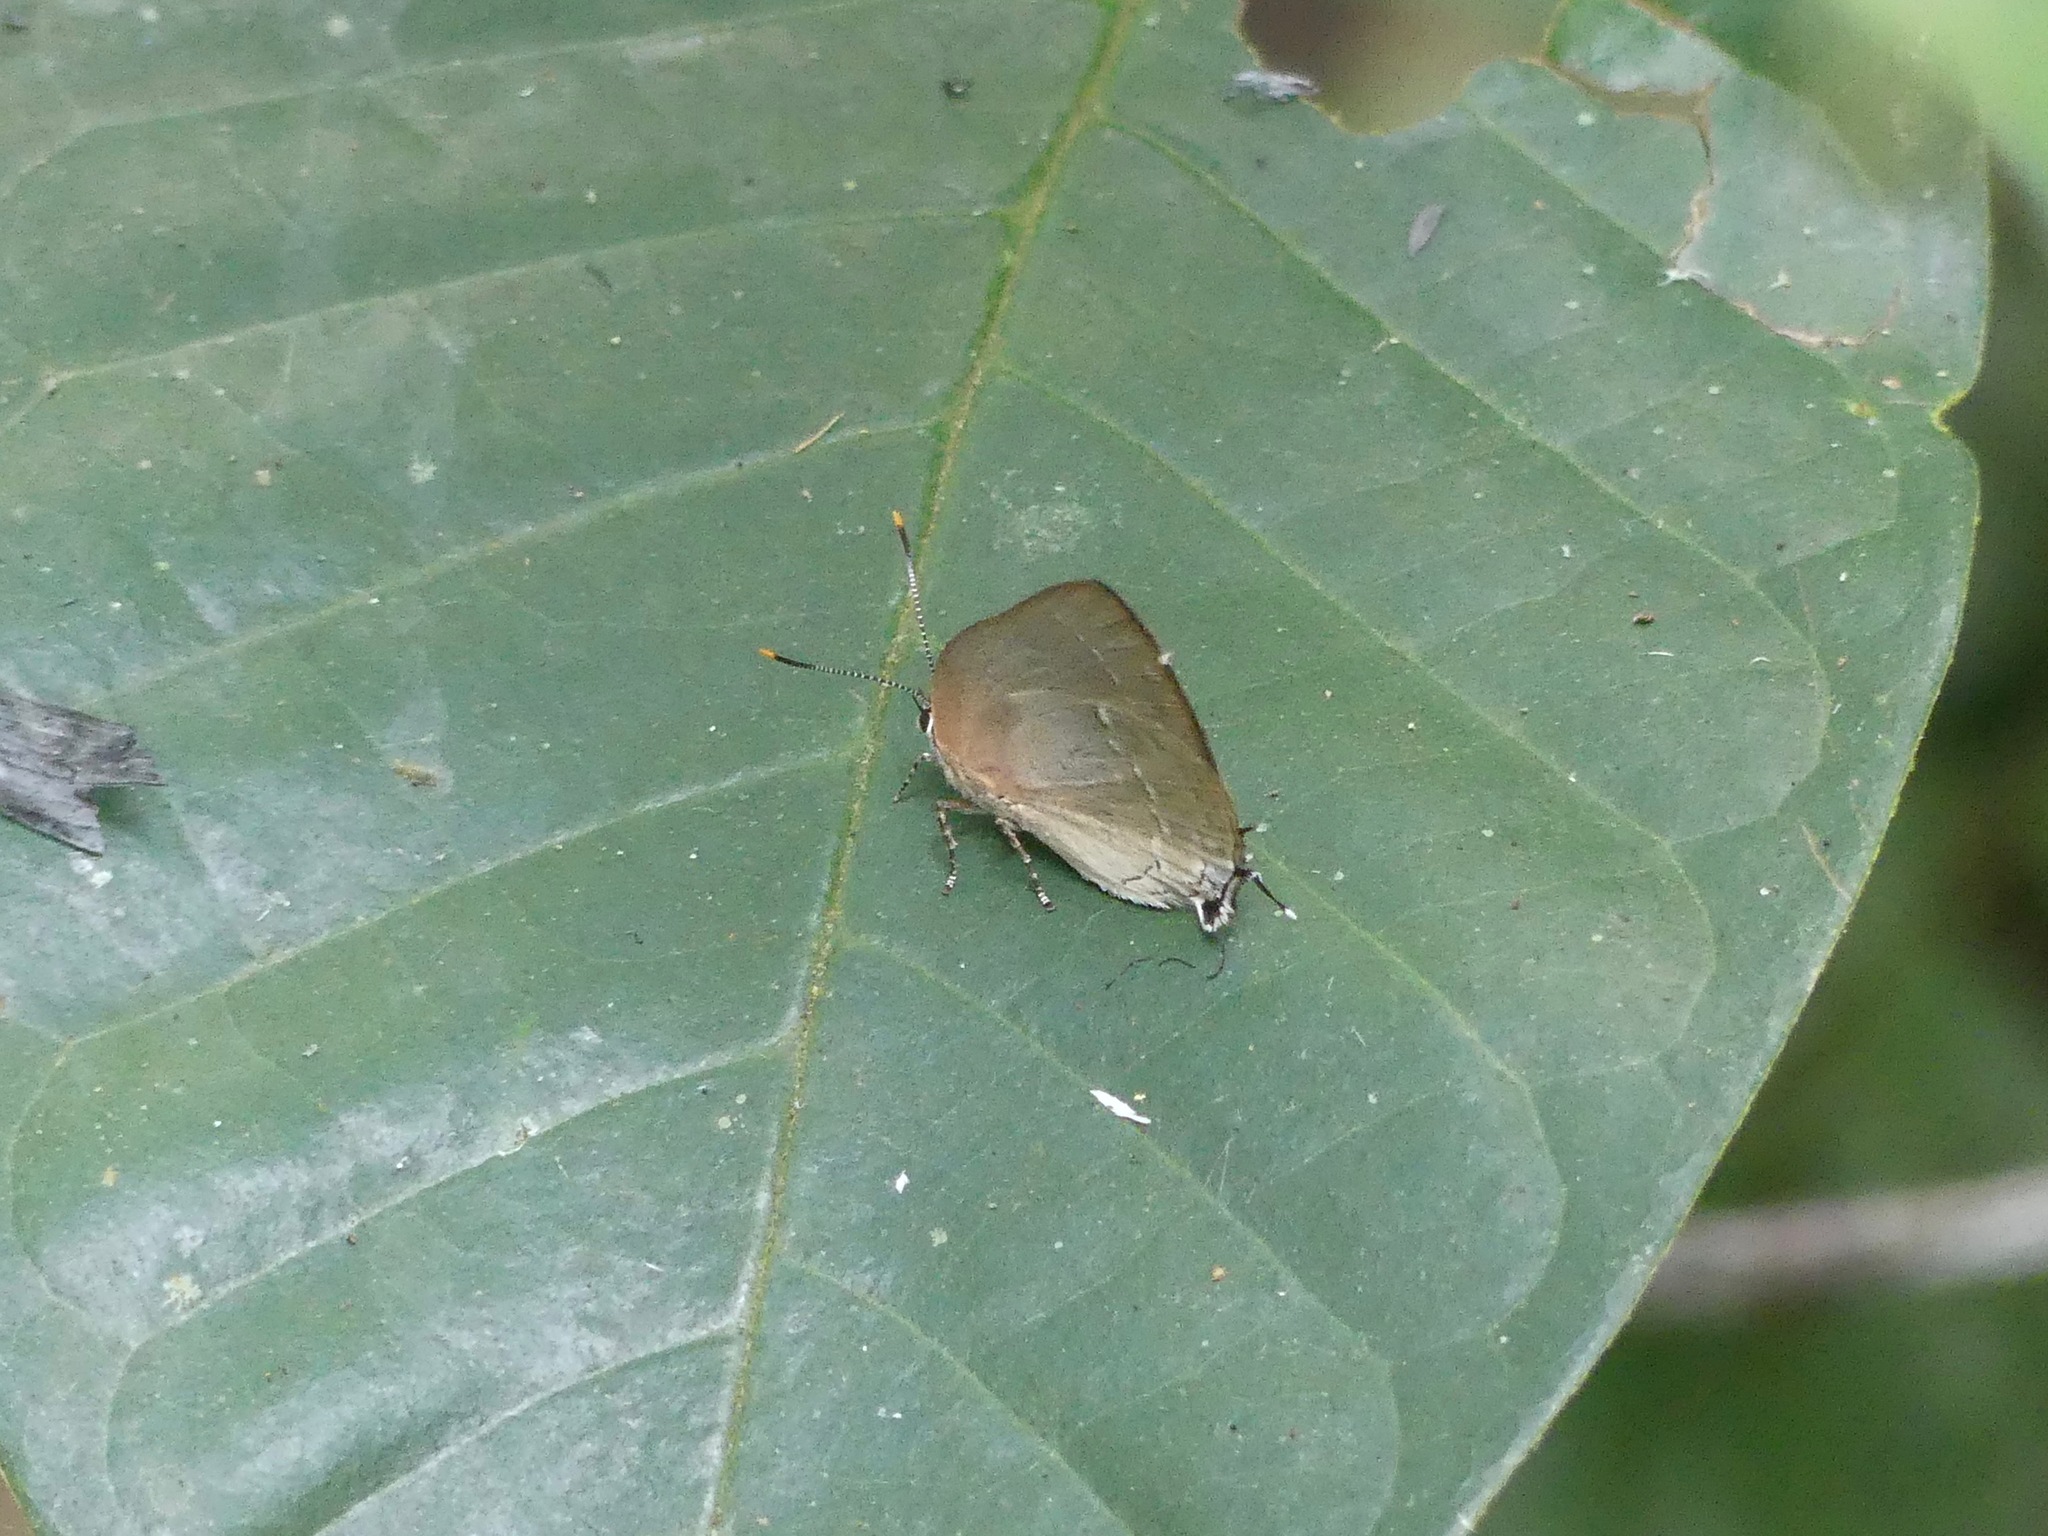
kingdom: Animalia
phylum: Arthropoda
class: Insecta
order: Lepidoptera
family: Lycaenidae
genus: Celmia
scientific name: Celmia color
